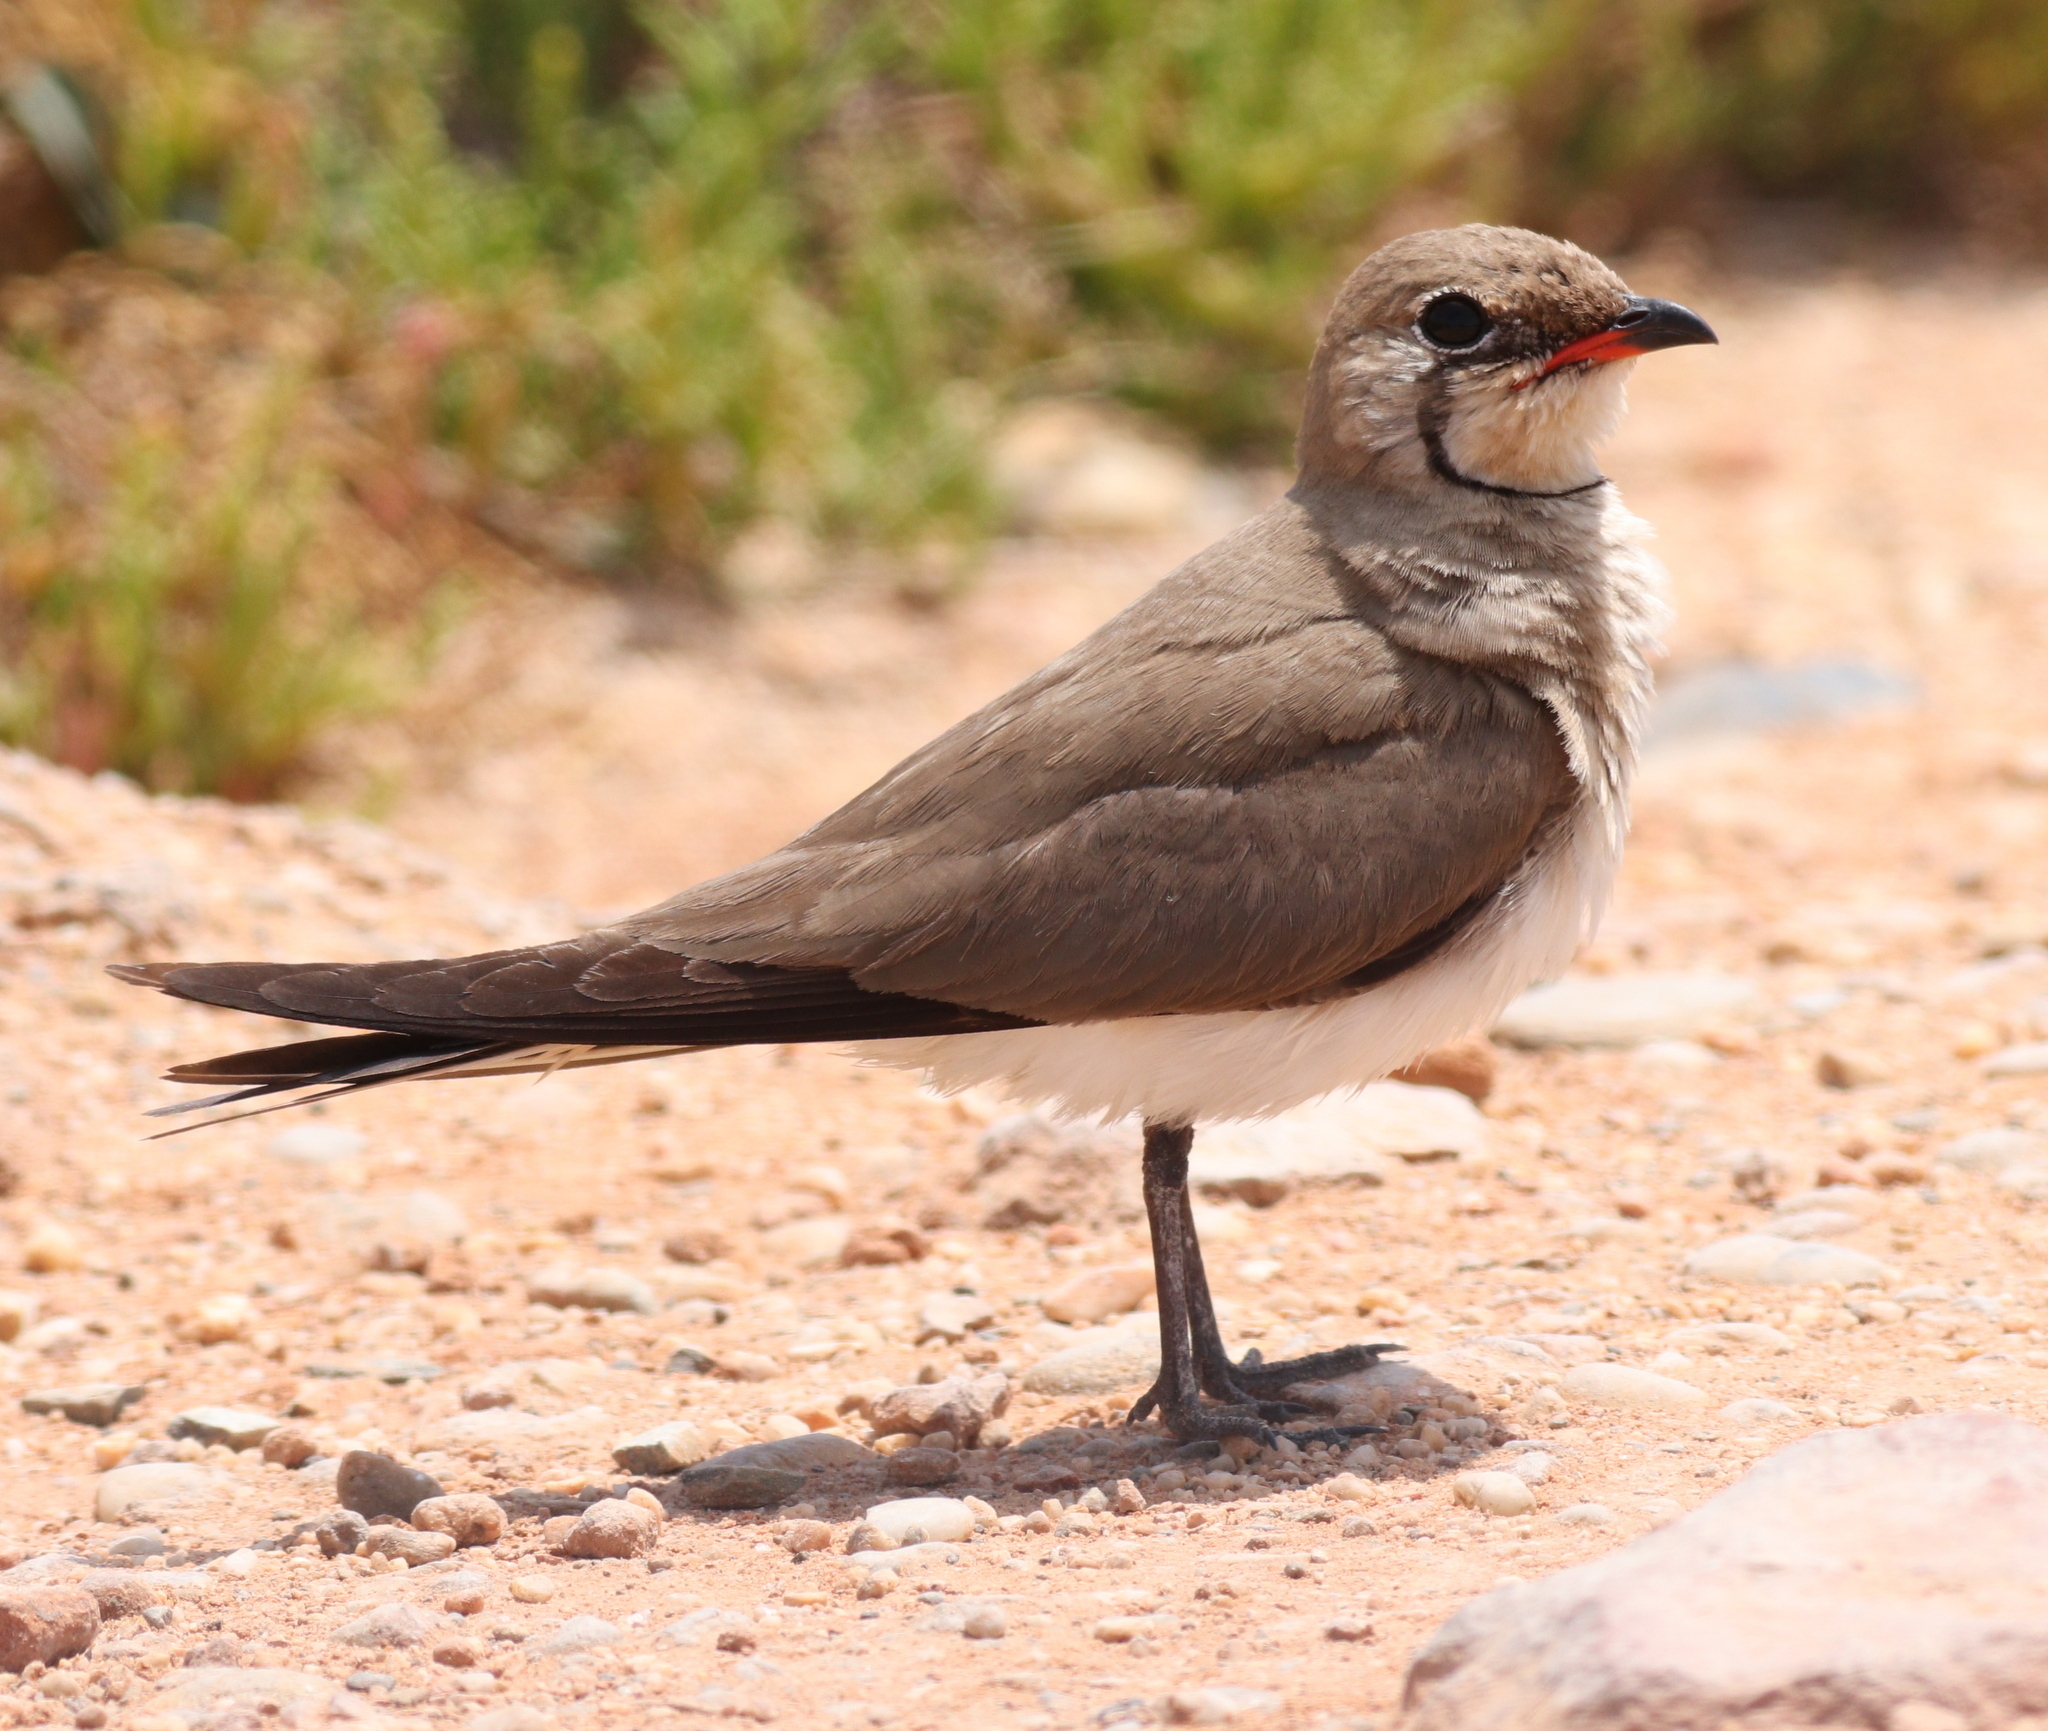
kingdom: Animalia
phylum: Chordata
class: Aves
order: Charadriiformes
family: Glareolidae
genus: Glareola
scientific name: Glareola pratincola
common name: Collared pratincole
